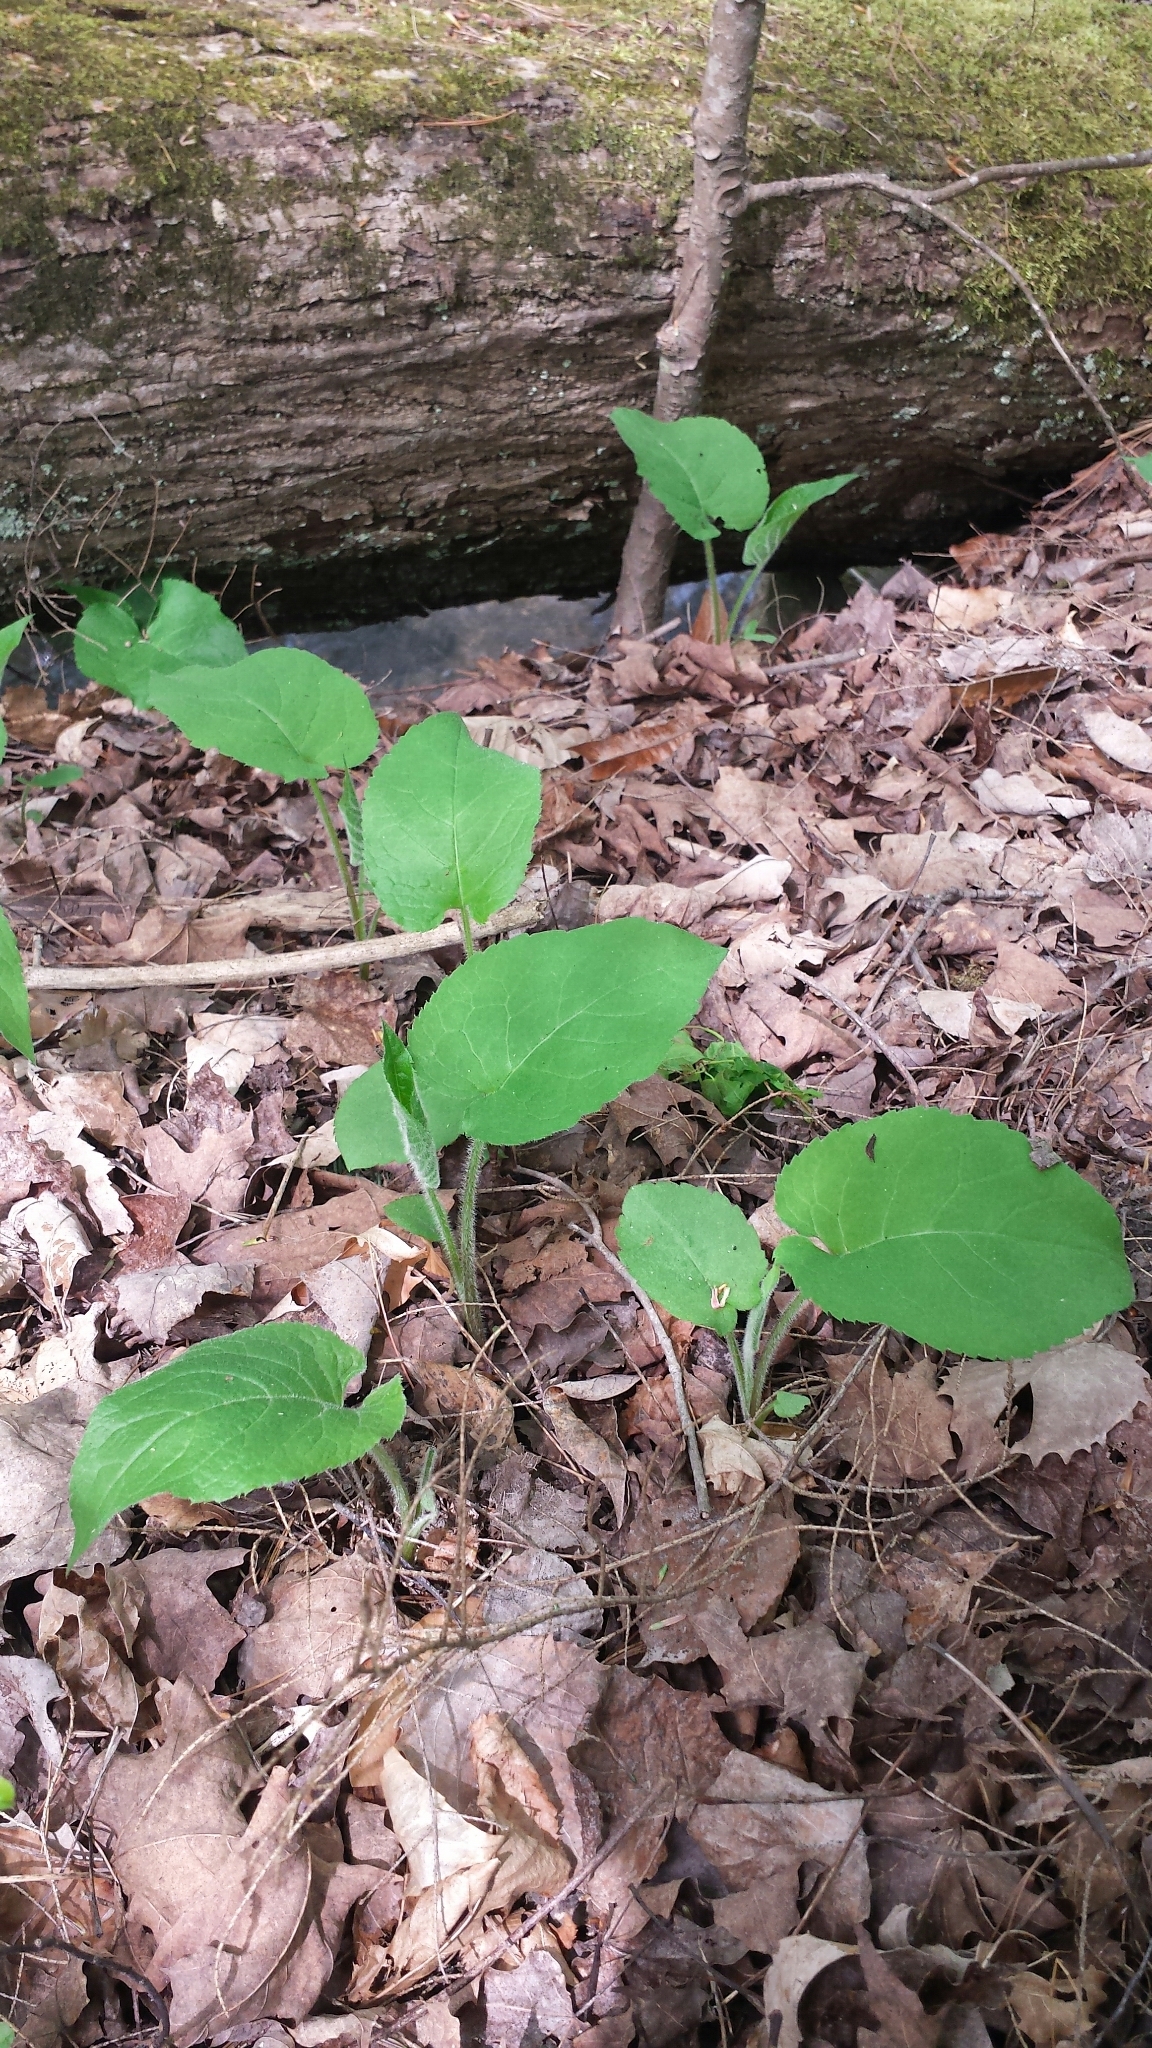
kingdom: Plantae
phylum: Tracheophyta
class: Magnoliopsida
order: Asterales
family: Asteraceae
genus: Eurybia
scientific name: Eurybia macrophylla
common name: Big-leaved aster
